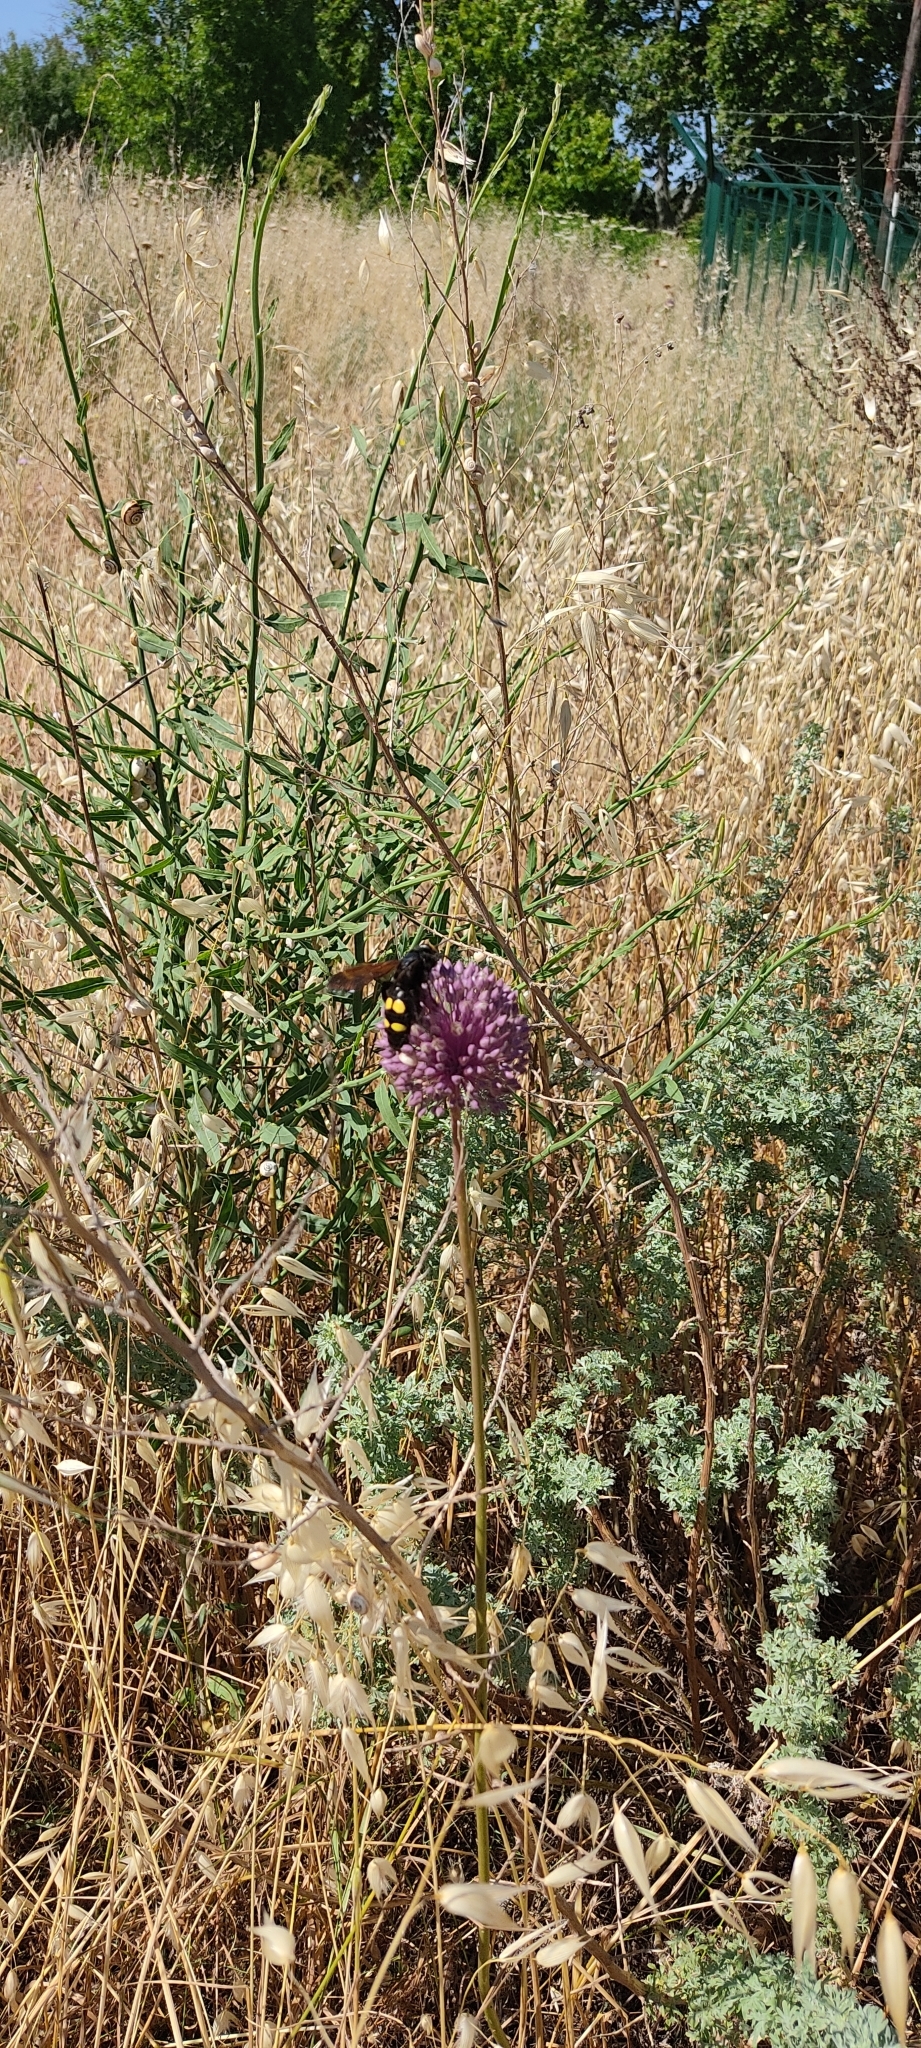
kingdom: Animalia
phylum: Arthropoda
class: Insecta
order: Hymenoptera
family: Scoliidae
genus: Megascolia
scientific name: Megascolia maculata
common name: Mammoth wasp
